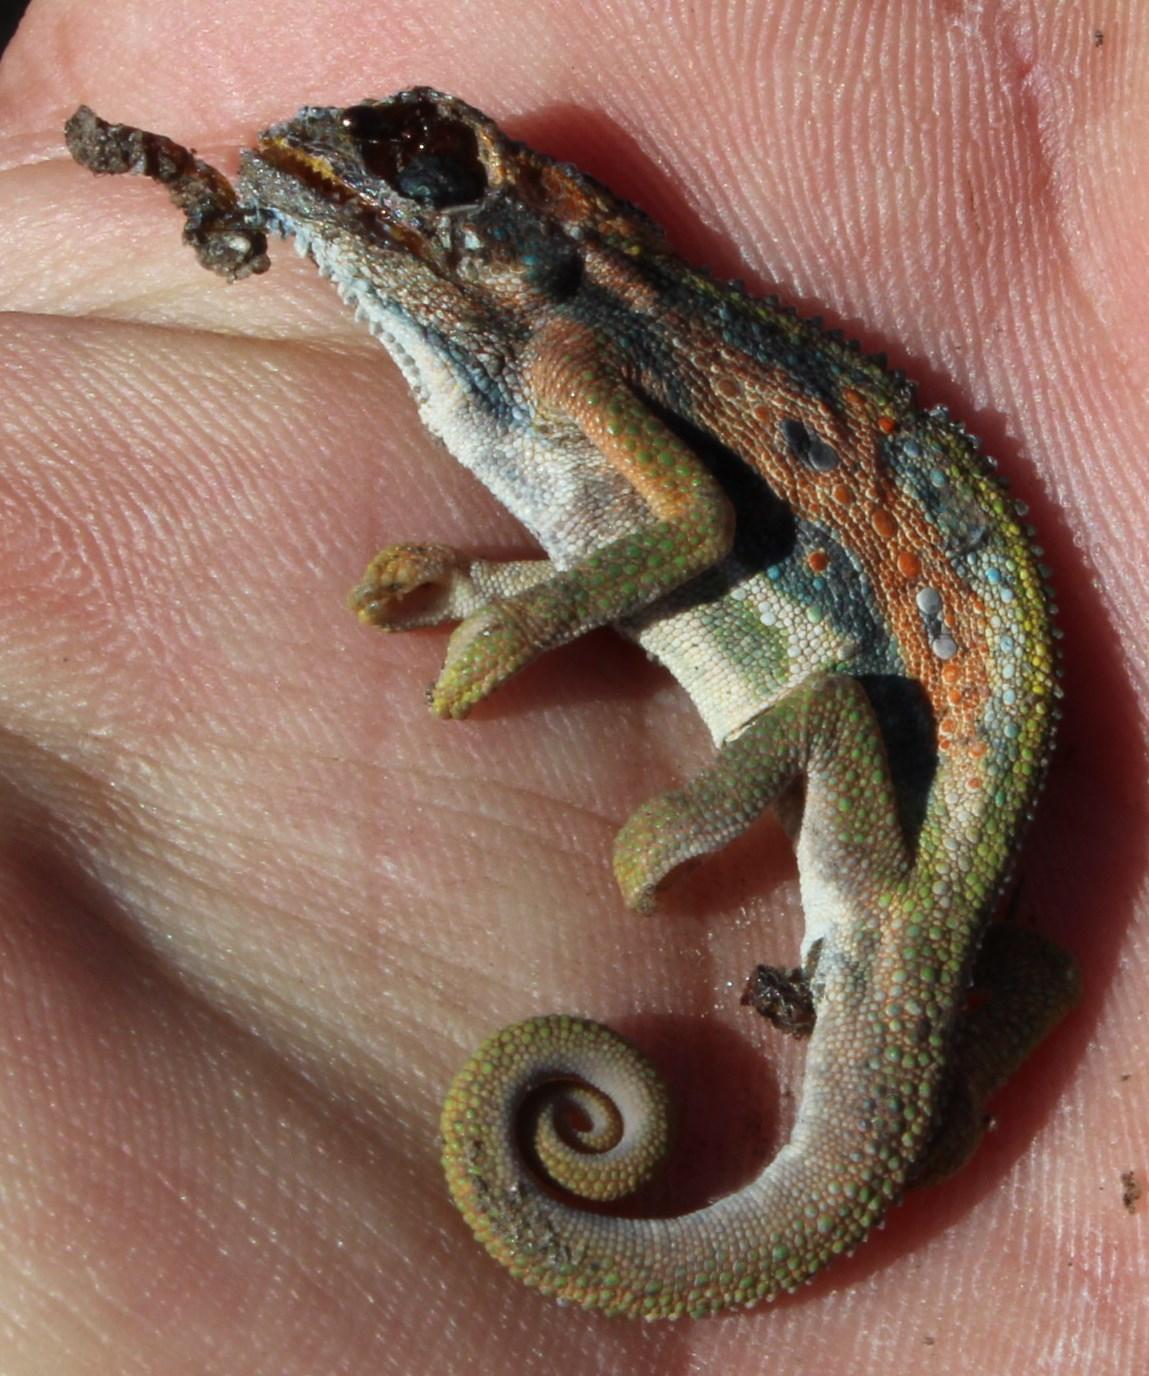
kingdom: Animalia
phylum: Chordata
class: Squamata
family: Chamaeleonidae
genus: Bradypodion
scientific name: Bradypodion pumilum
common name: Cape dwarf chameleon
